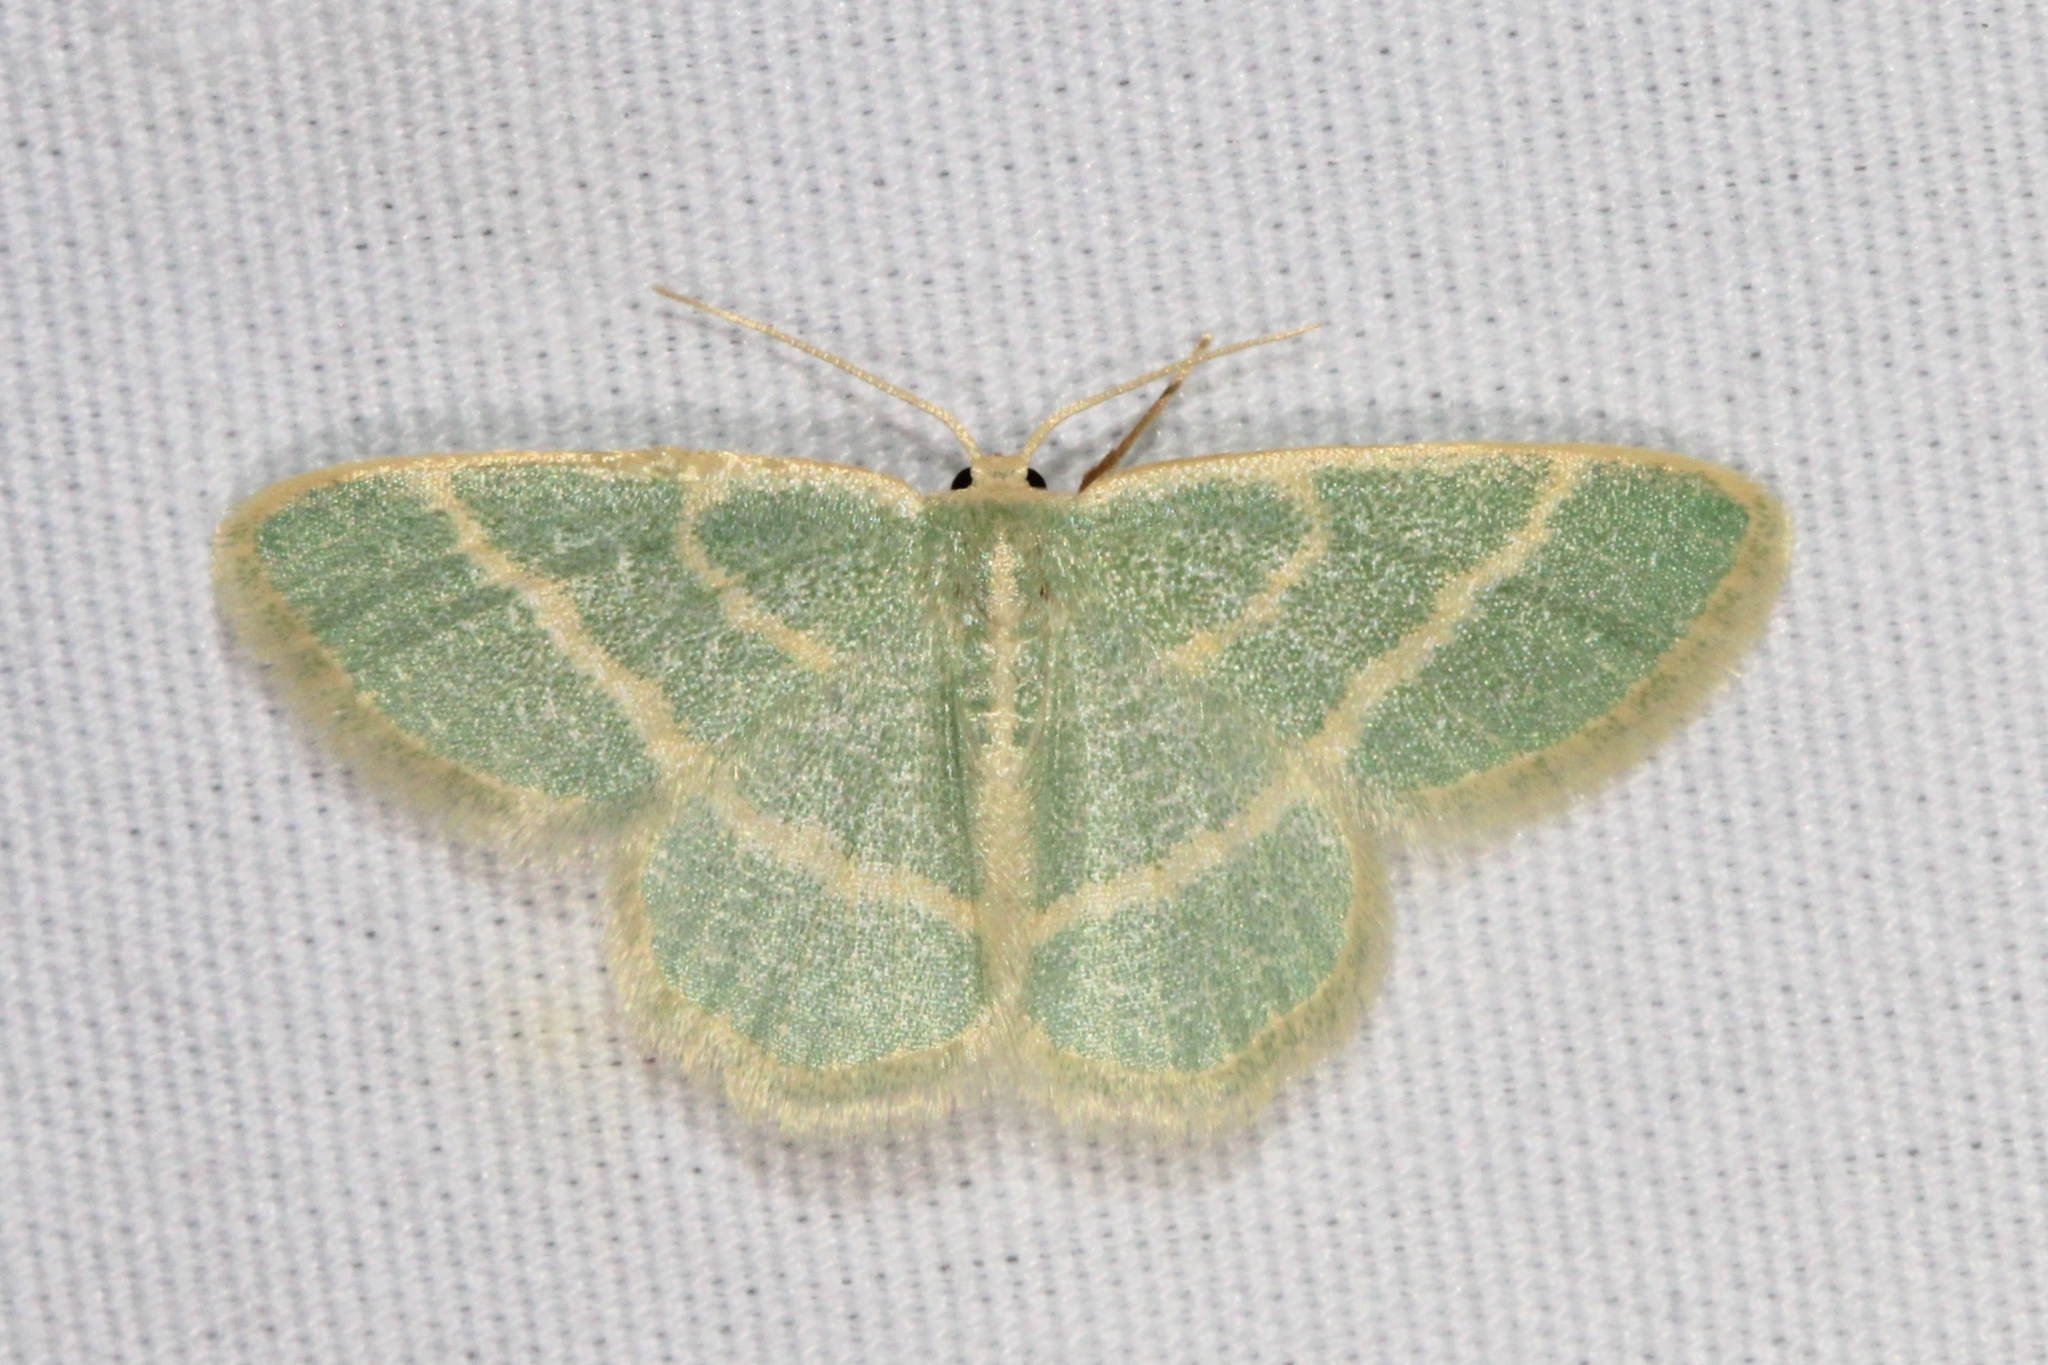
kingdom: Animalia
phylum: Arthropoda
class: Insecta
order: Lepidoptera
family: Geometridae
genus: Chlorochlamys
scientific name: Chlorochlamys chloroleucaria
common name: Blackberry looper
